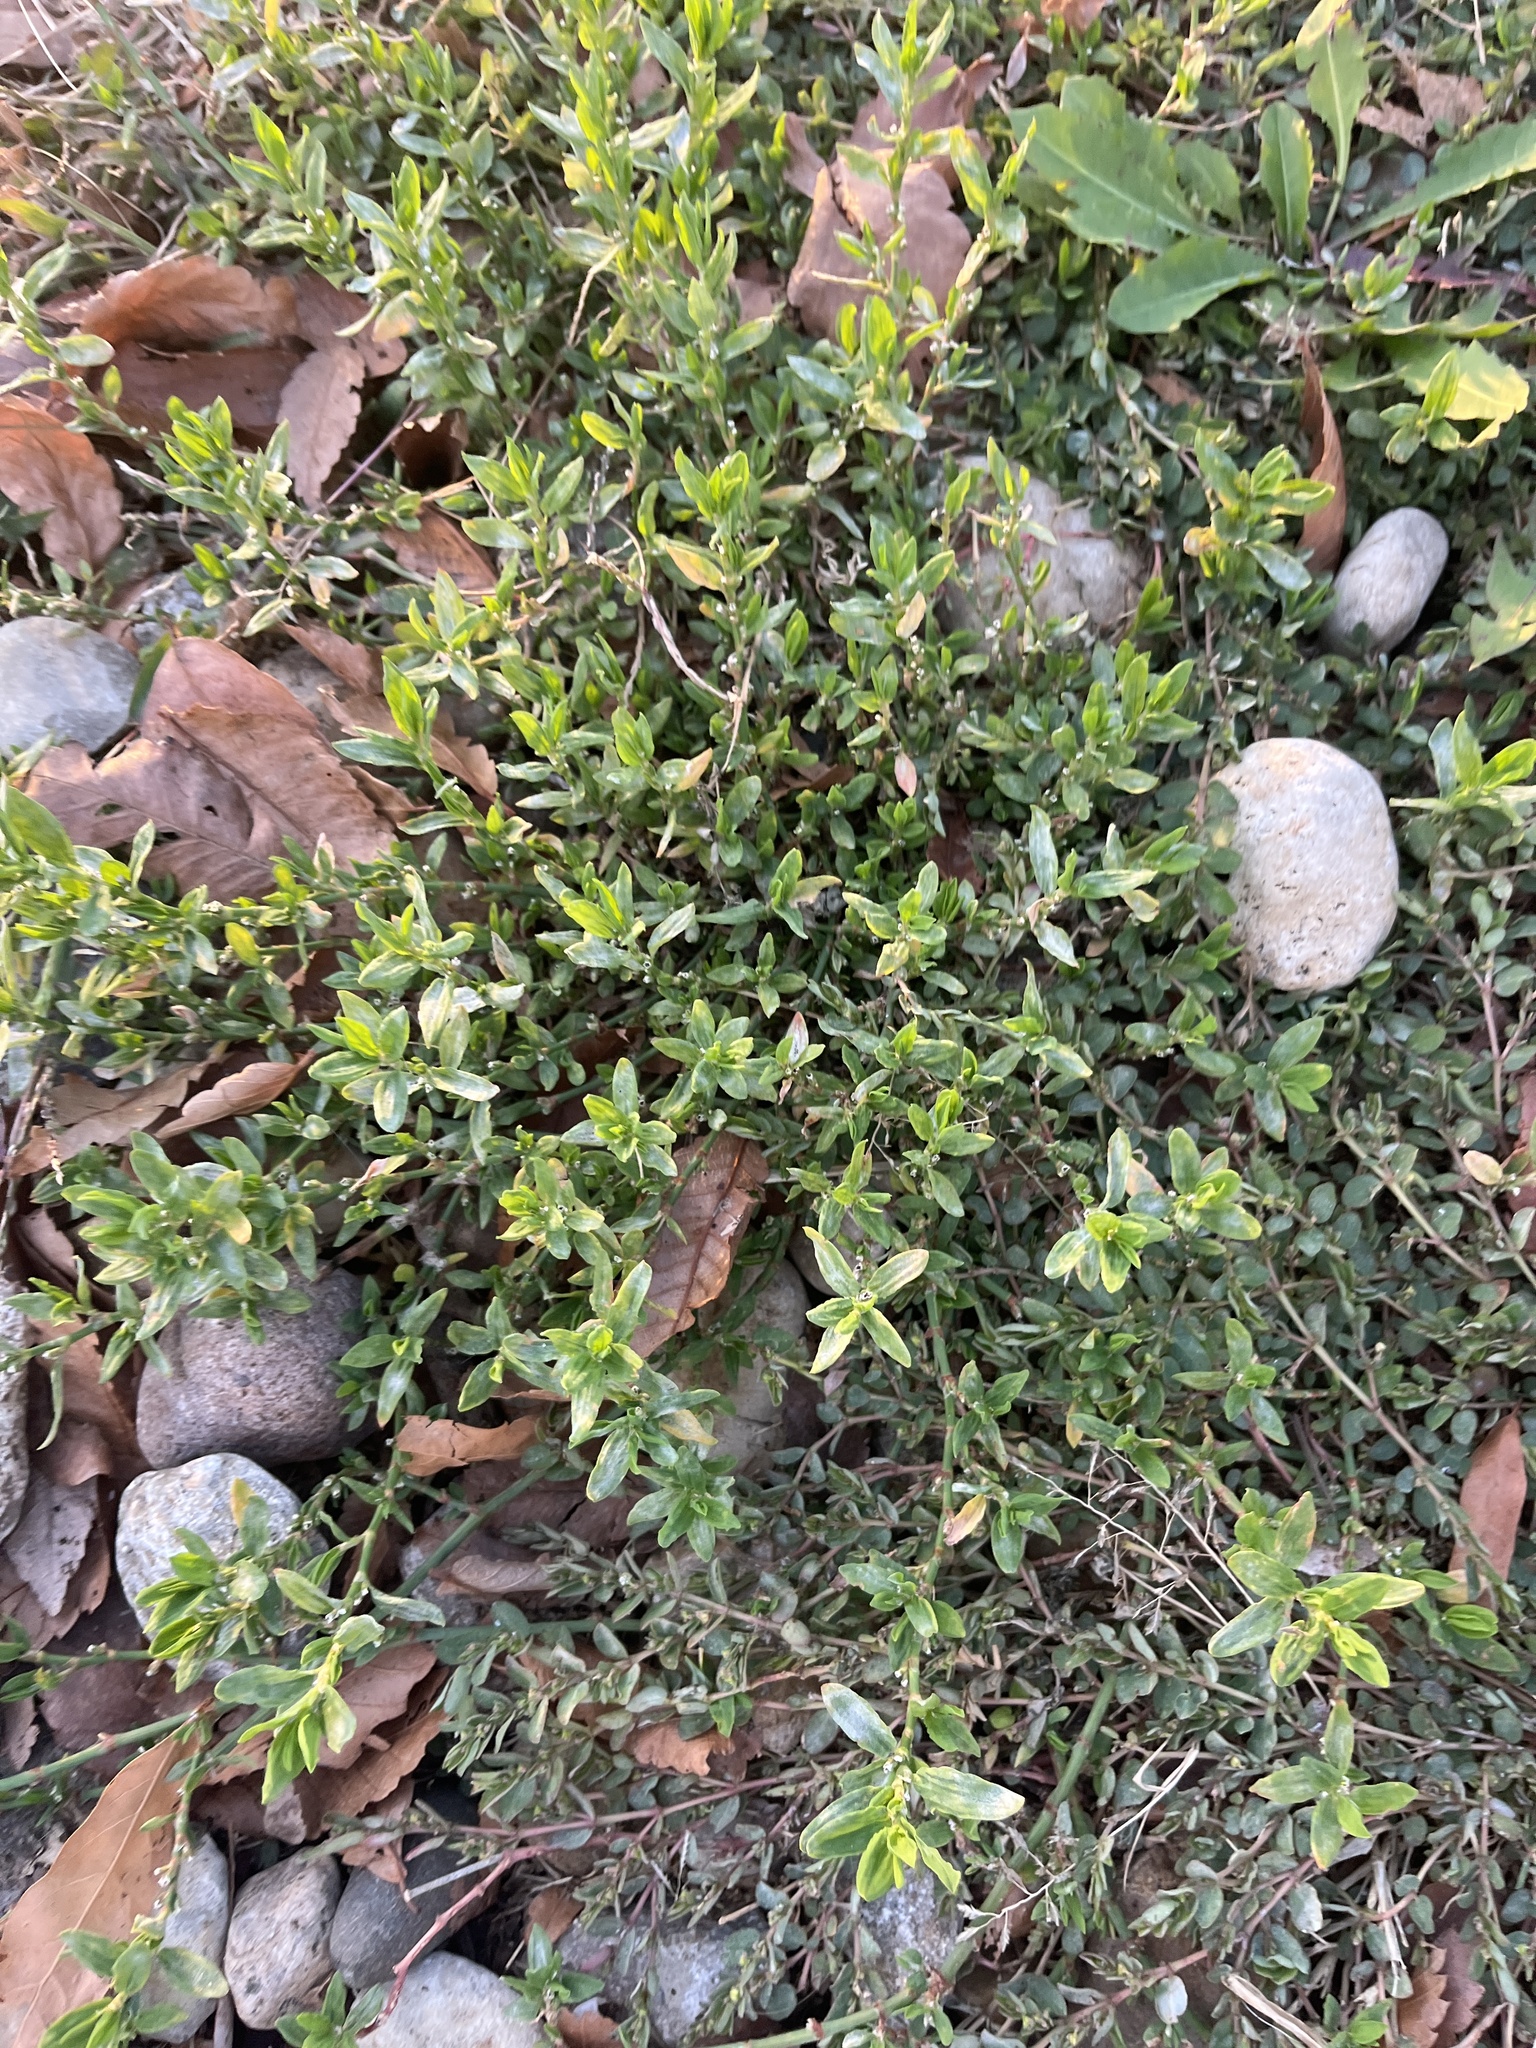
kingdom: Plantae
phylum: Tracheophyta
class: Magnoliopsida
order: Caryophyllales
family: Polygonaceae
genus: Polygonum
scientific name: Polygonum aviculare
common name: Prostrate knotweed
